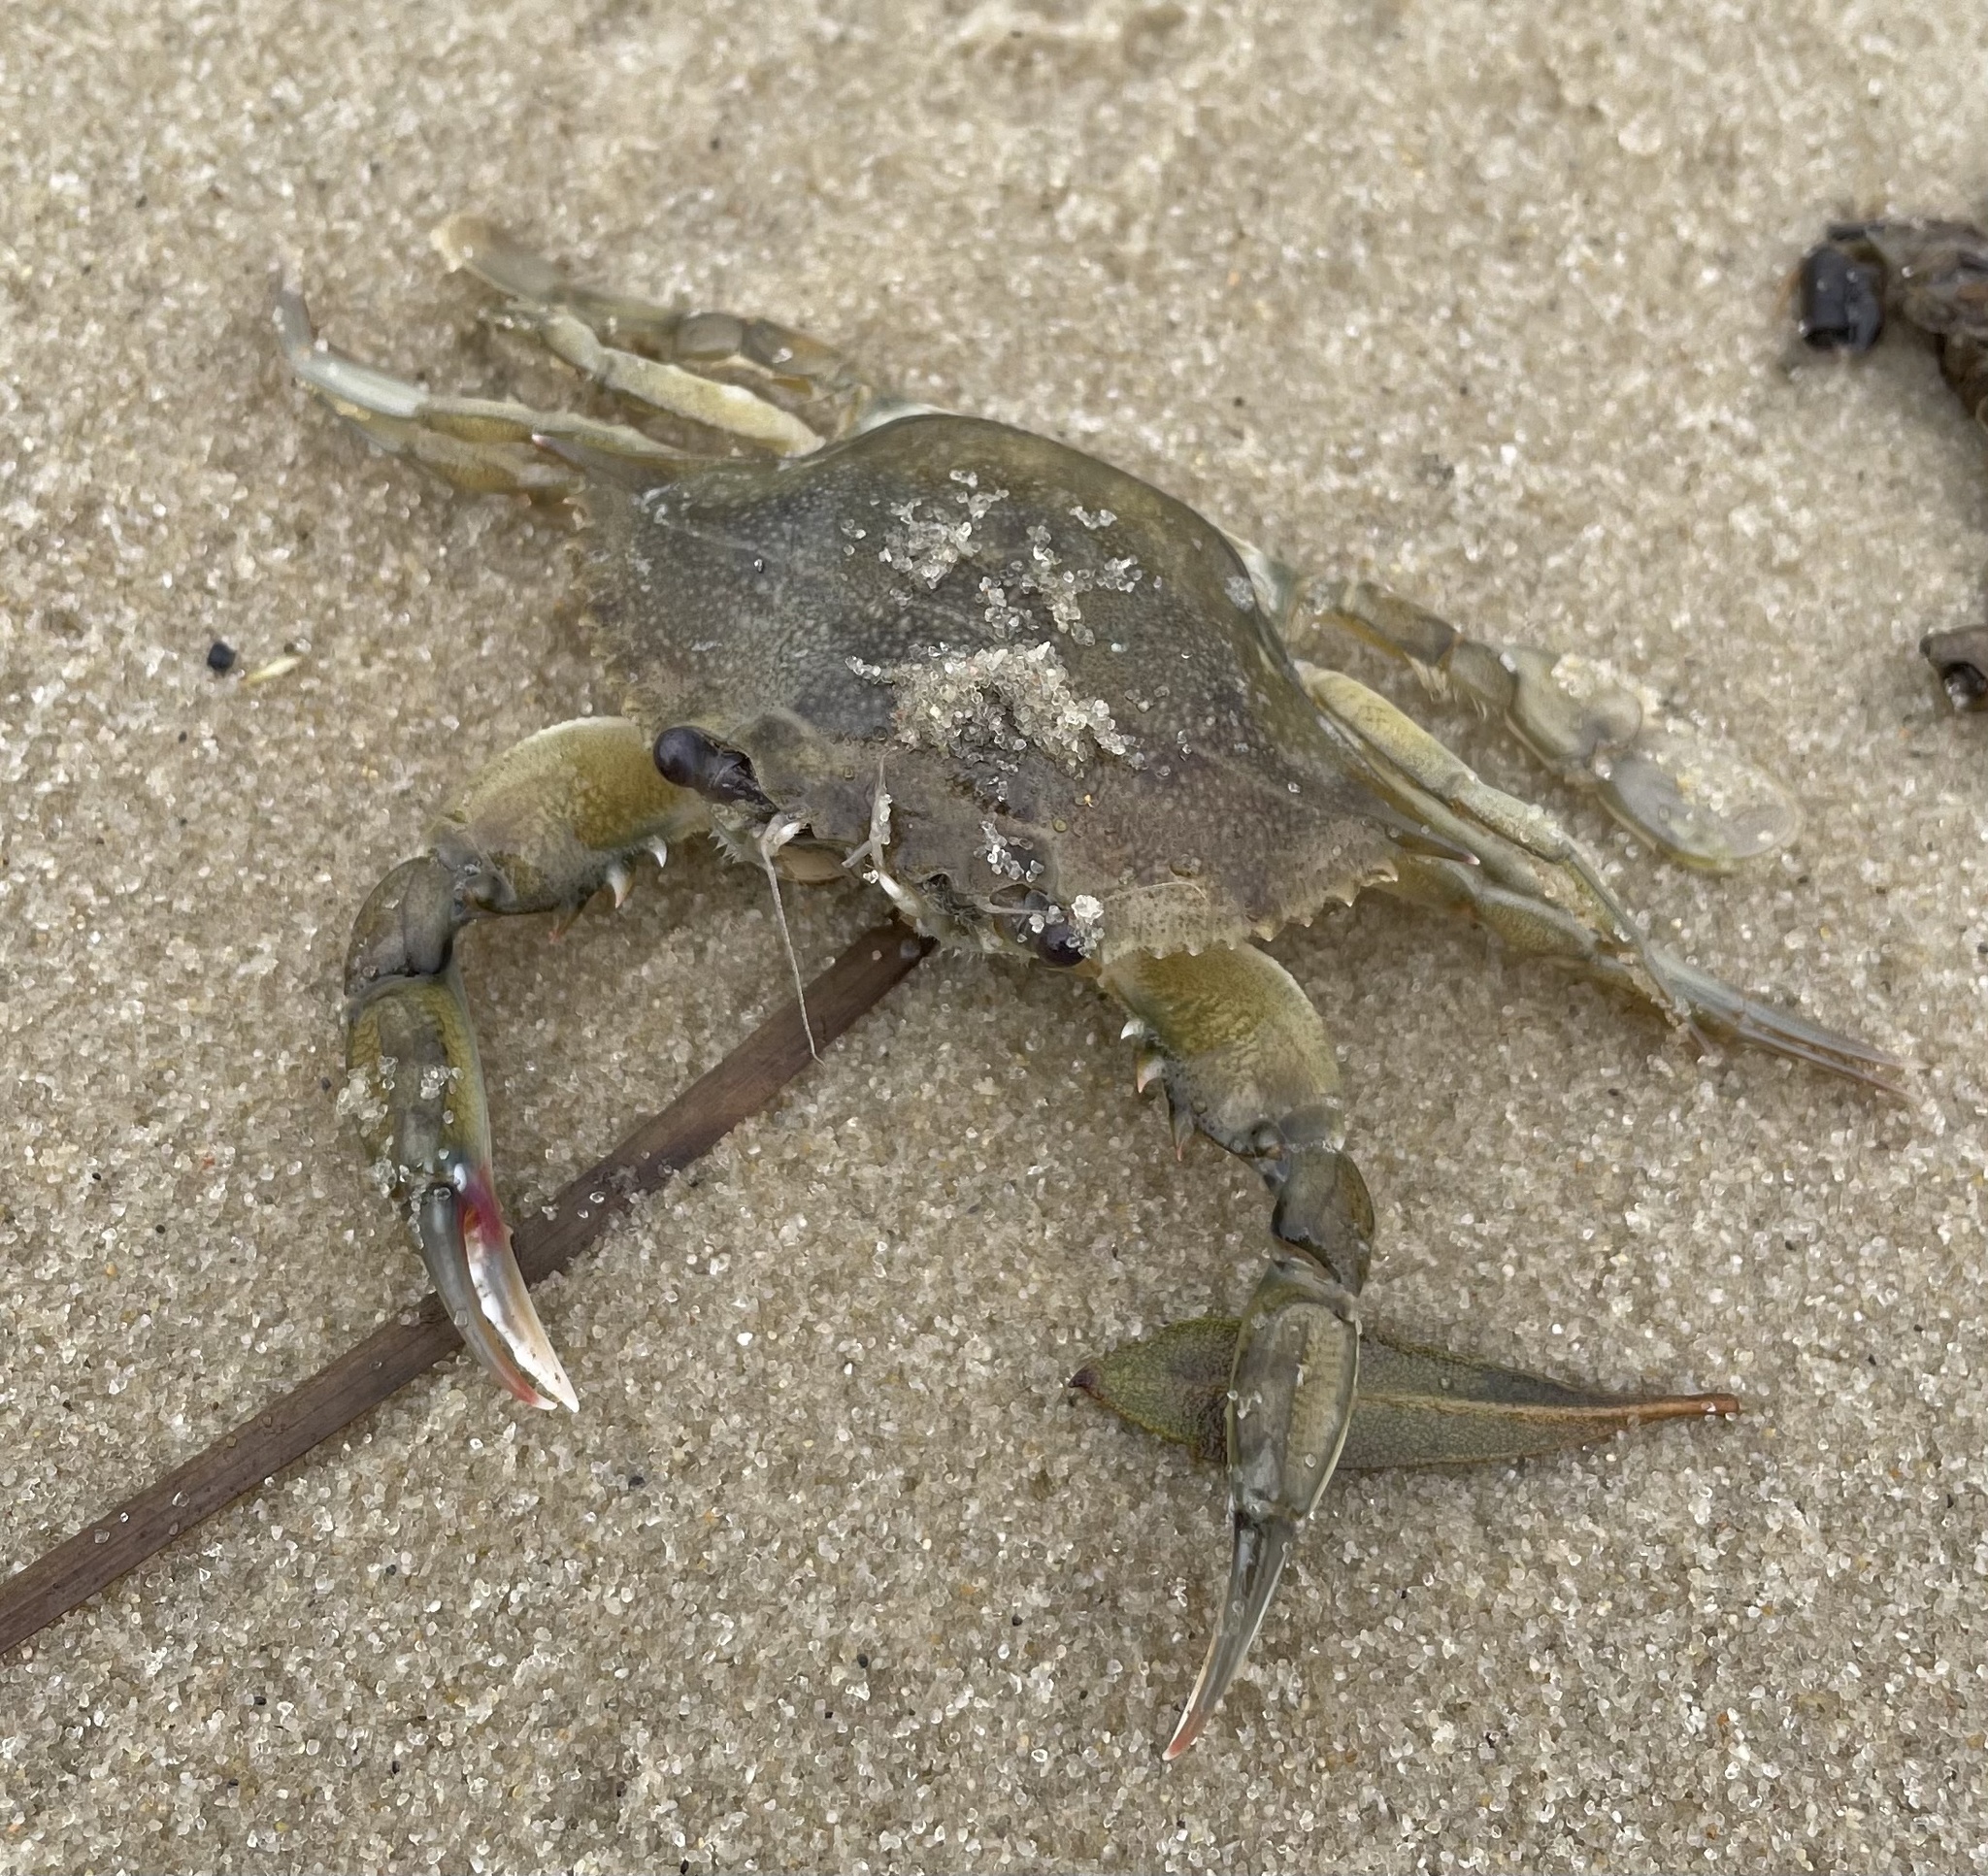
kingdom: Animalia
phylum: Arthropoda
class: Malacostraca
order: Decapoda
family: Portunidae
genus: Callinectes
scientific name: Callinectes sapidus
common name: Blue crab
